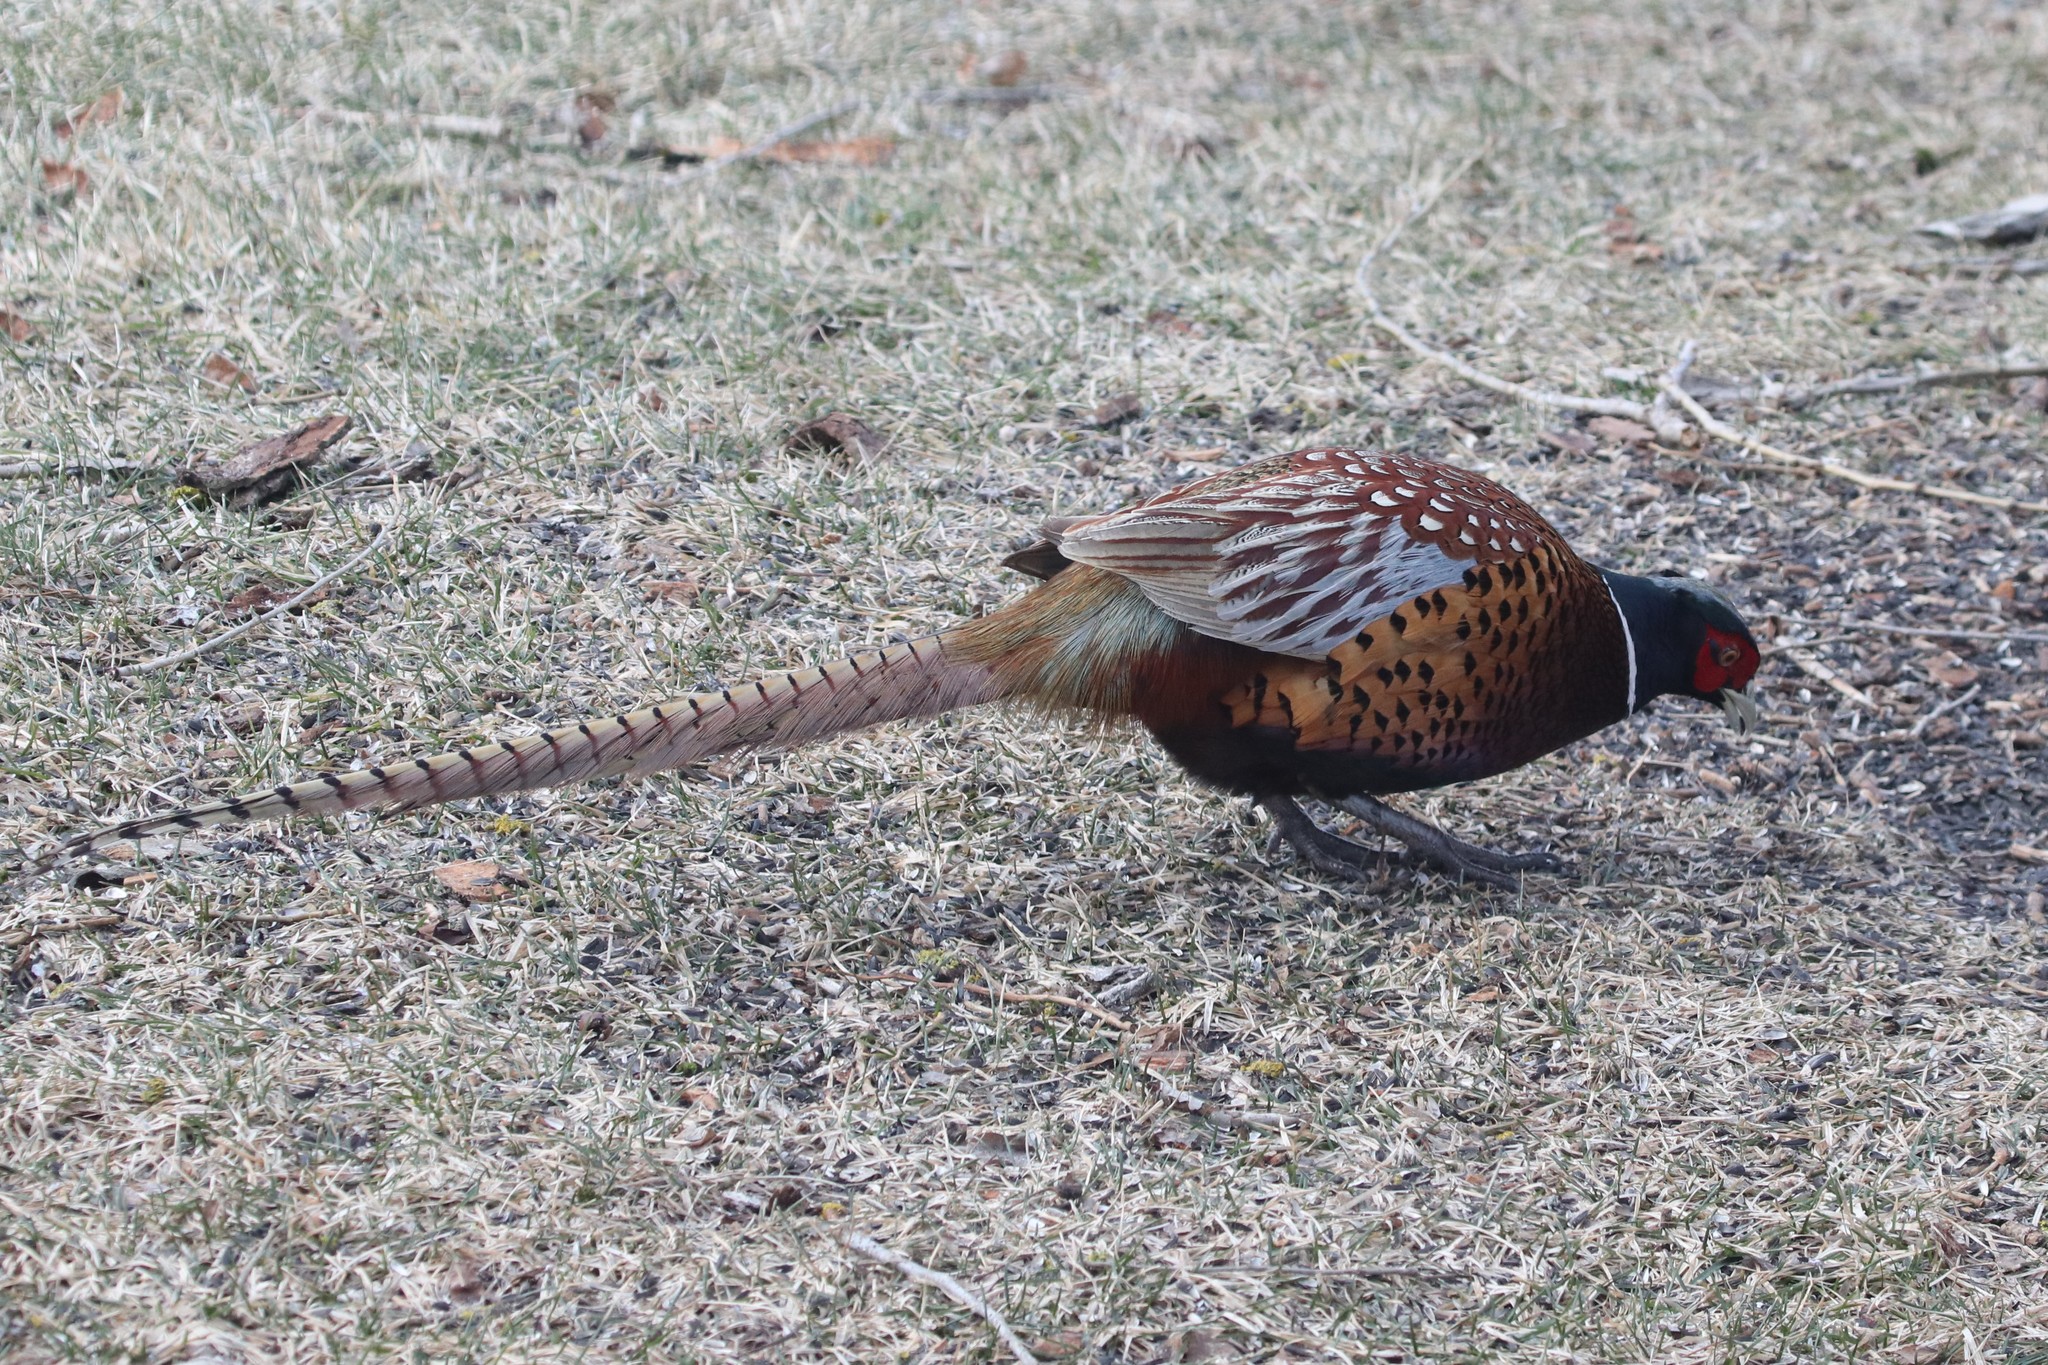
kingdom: Animalia
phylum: Chordata
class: Aves
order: Galliformes
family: Phasianidae
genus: Phasianus
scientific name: Phasianus colchicus
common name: Common pheasant
